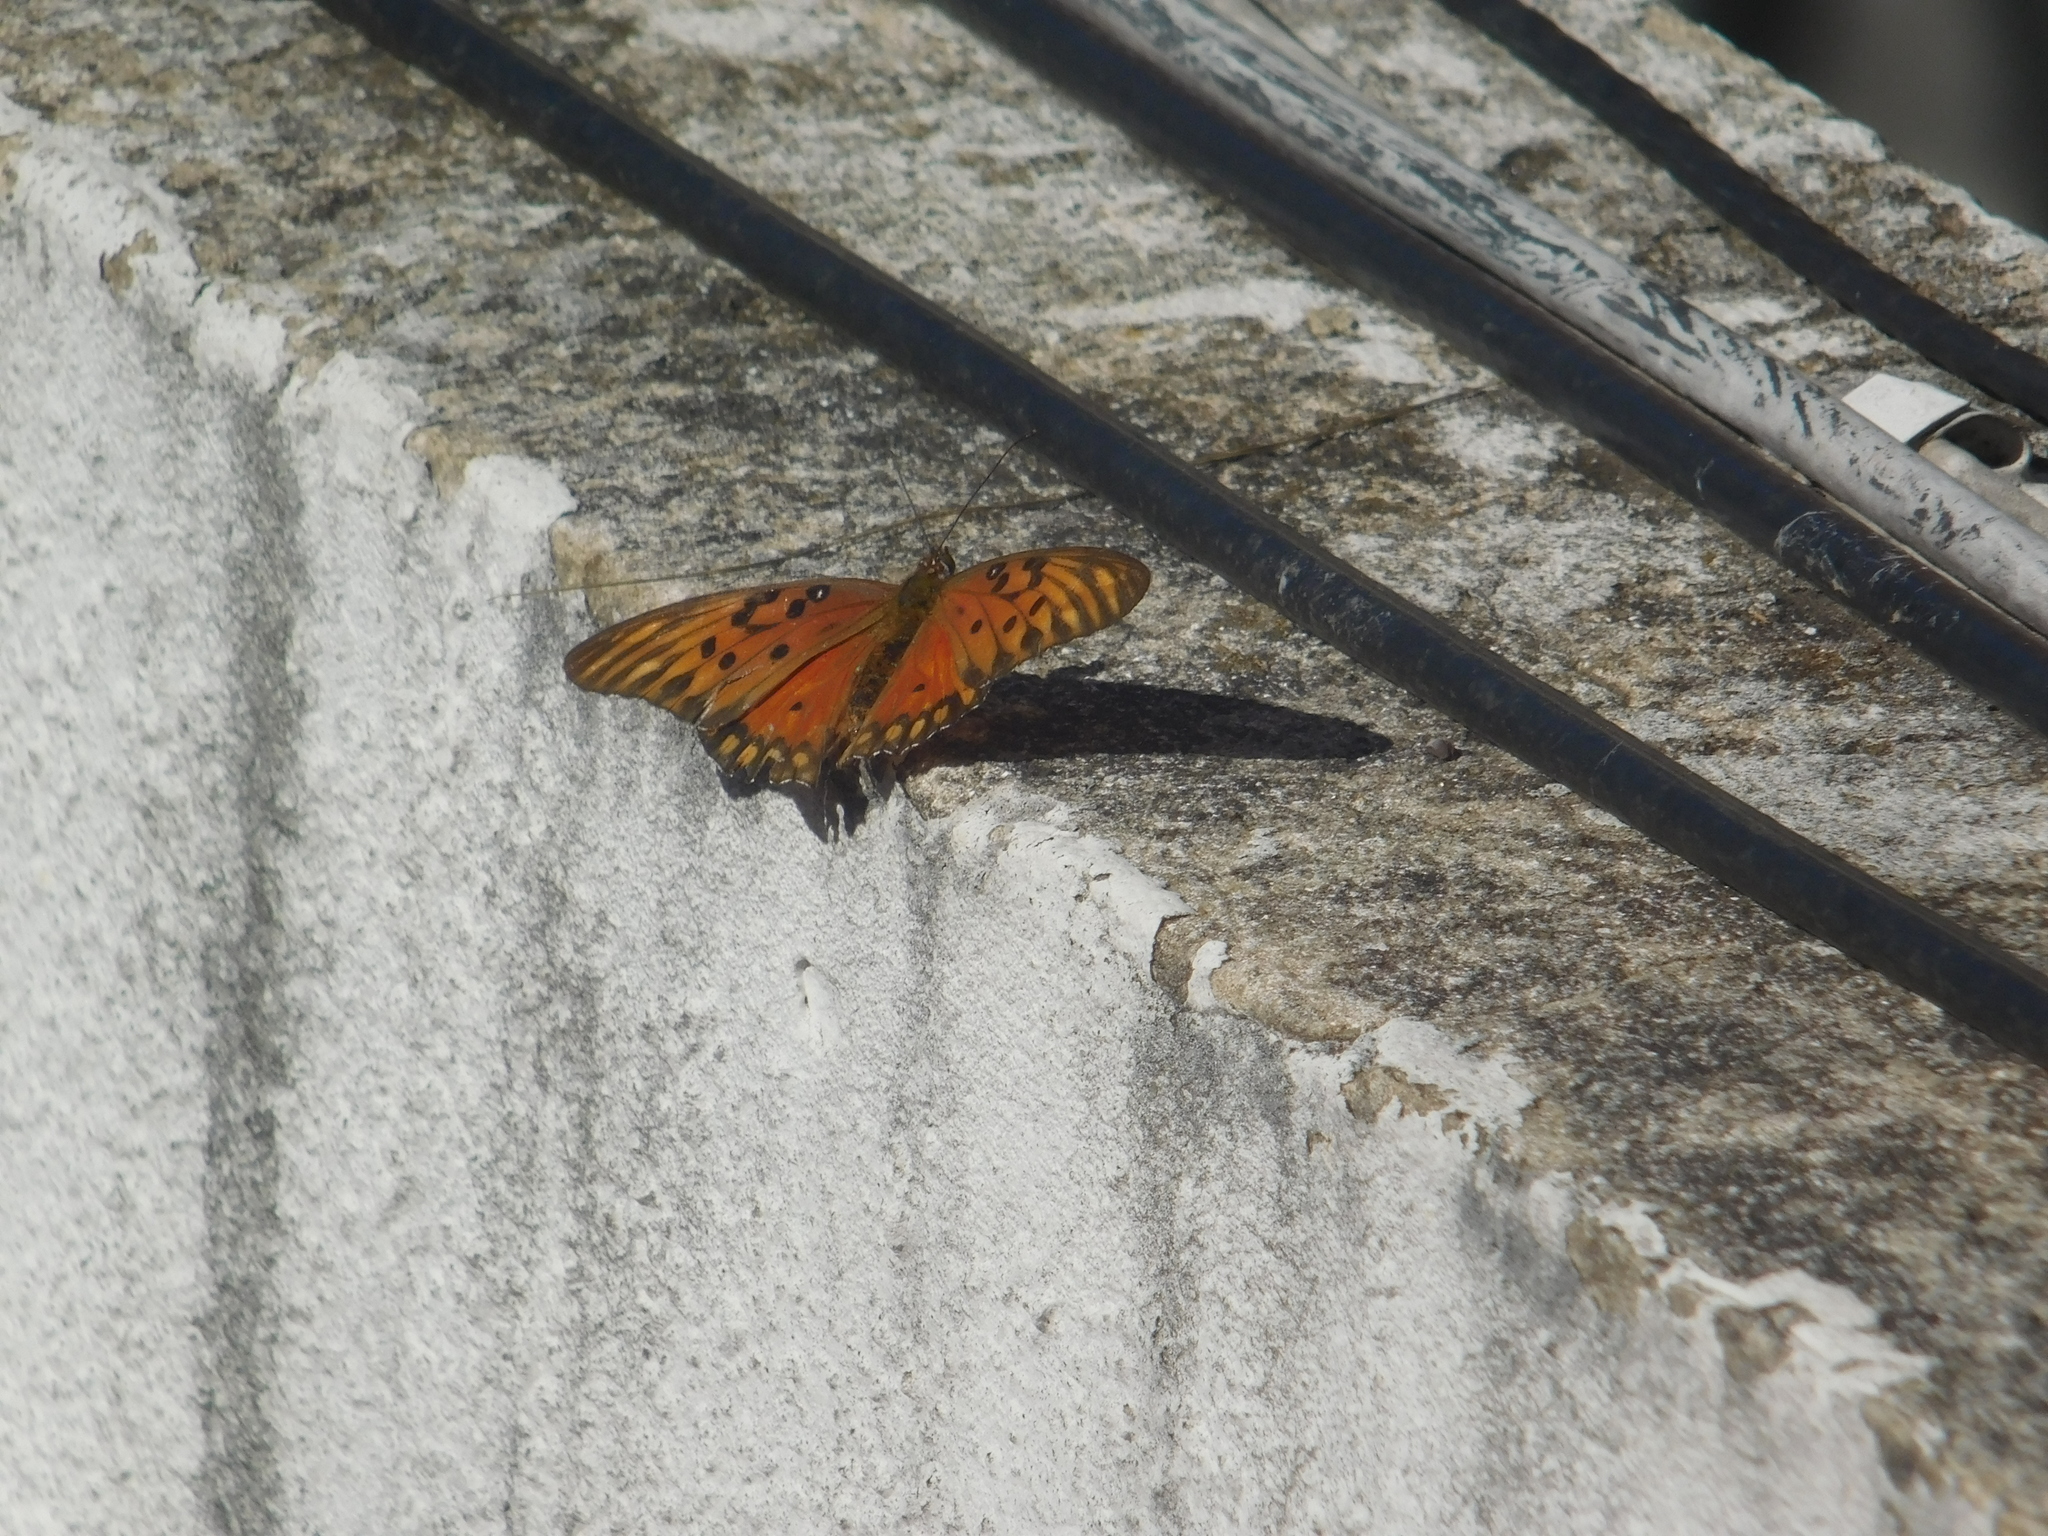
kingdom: Animalia
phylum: Arthropoda
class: Insecta
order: Lepidoptera
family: Nymphalidae
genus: Dione
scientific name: Dione vanillae
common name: Gulf fritillary
